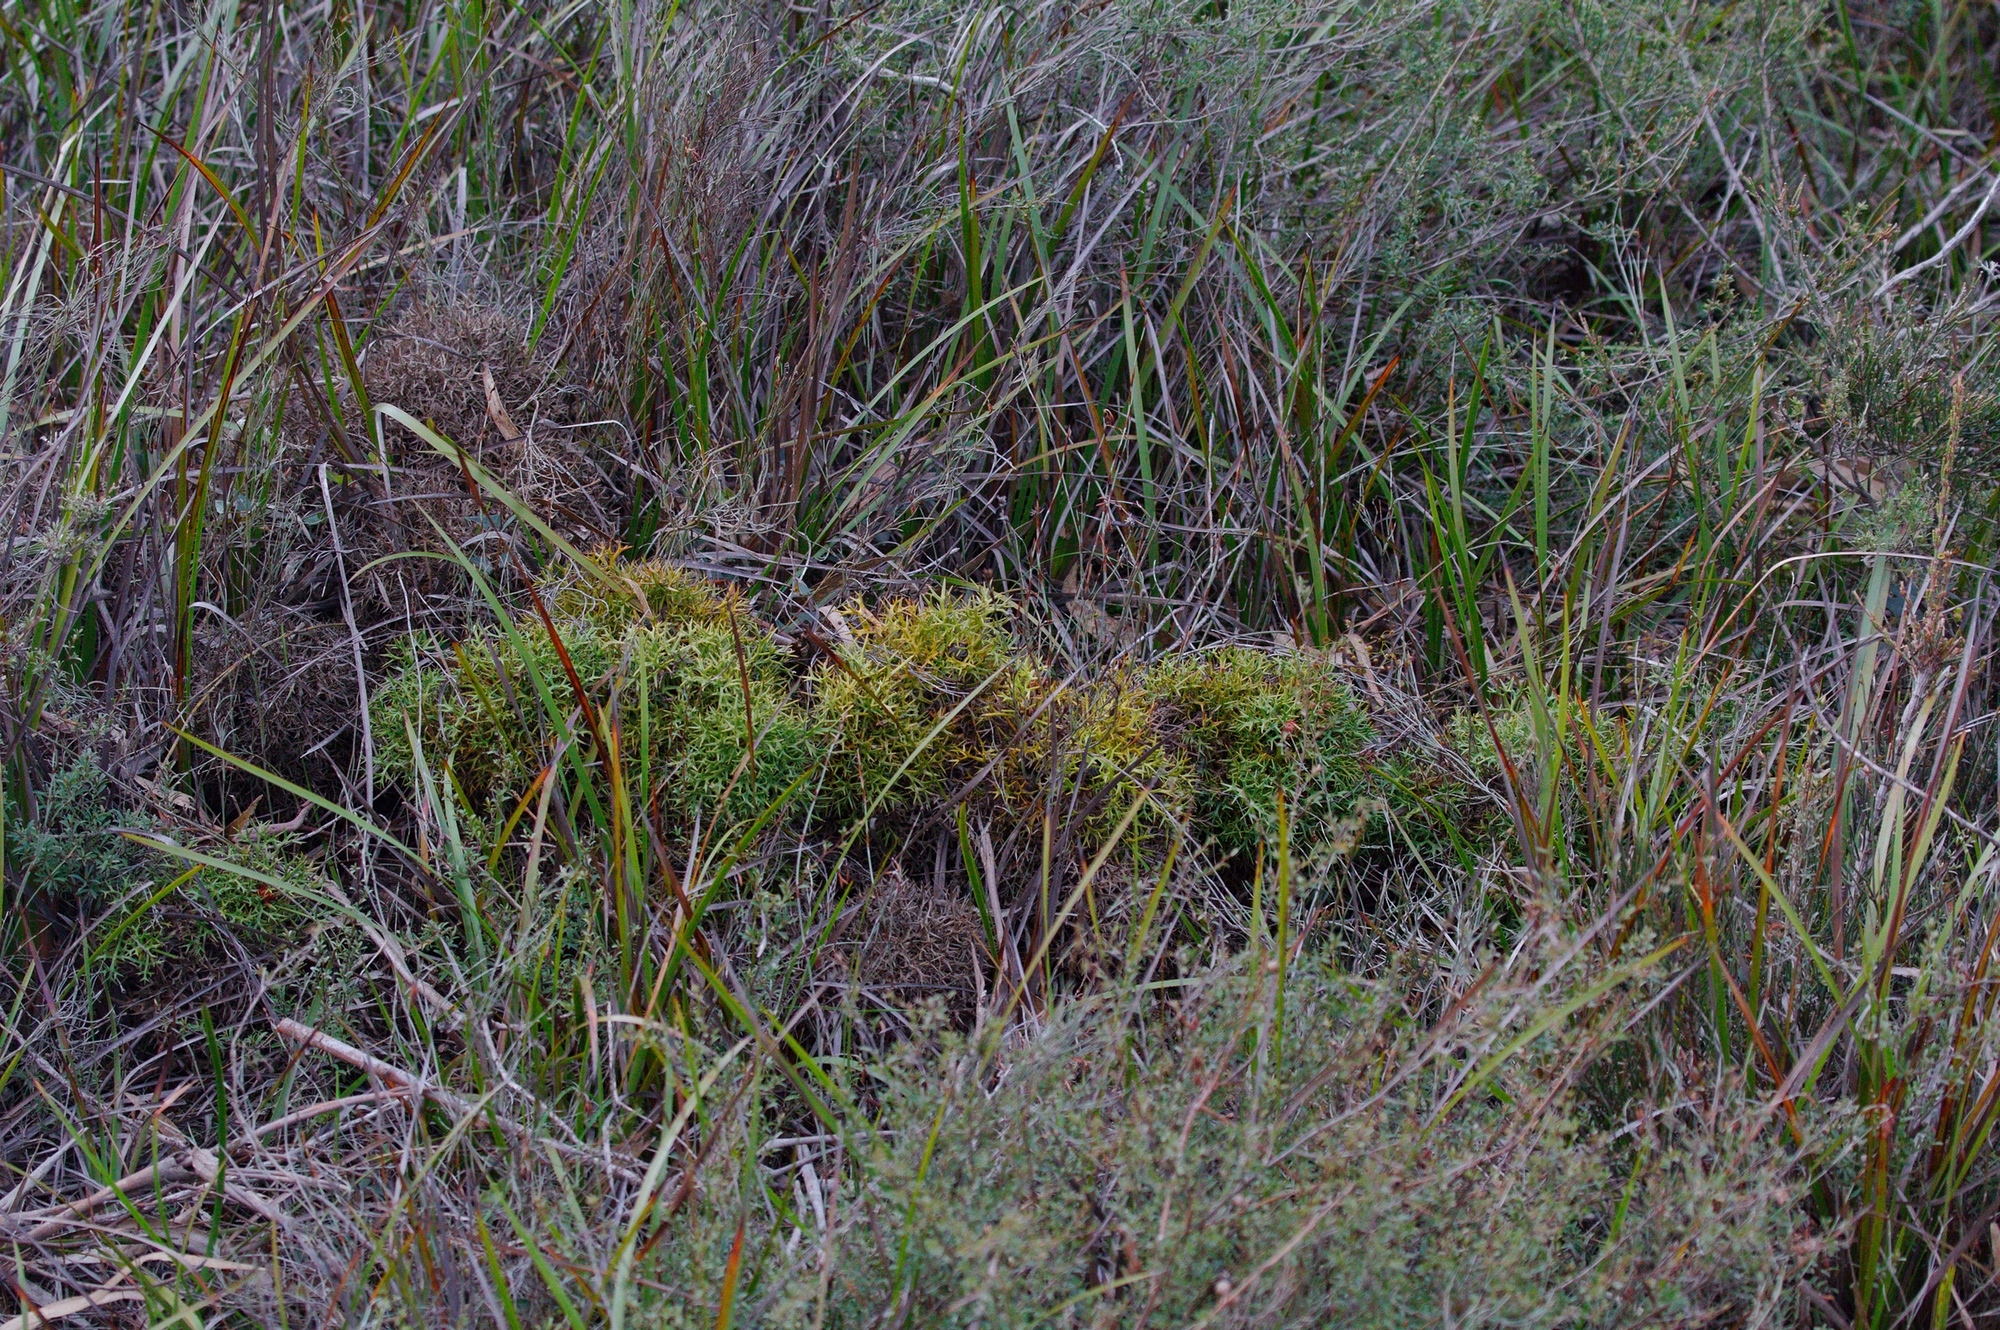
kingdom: Plantae
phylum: Tracheophyta
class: Magnoliopsida
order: Proteales
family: Proteaceae
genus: Isopogon
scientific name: Isopogon ceratophyllus
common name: Horny cone-bush
